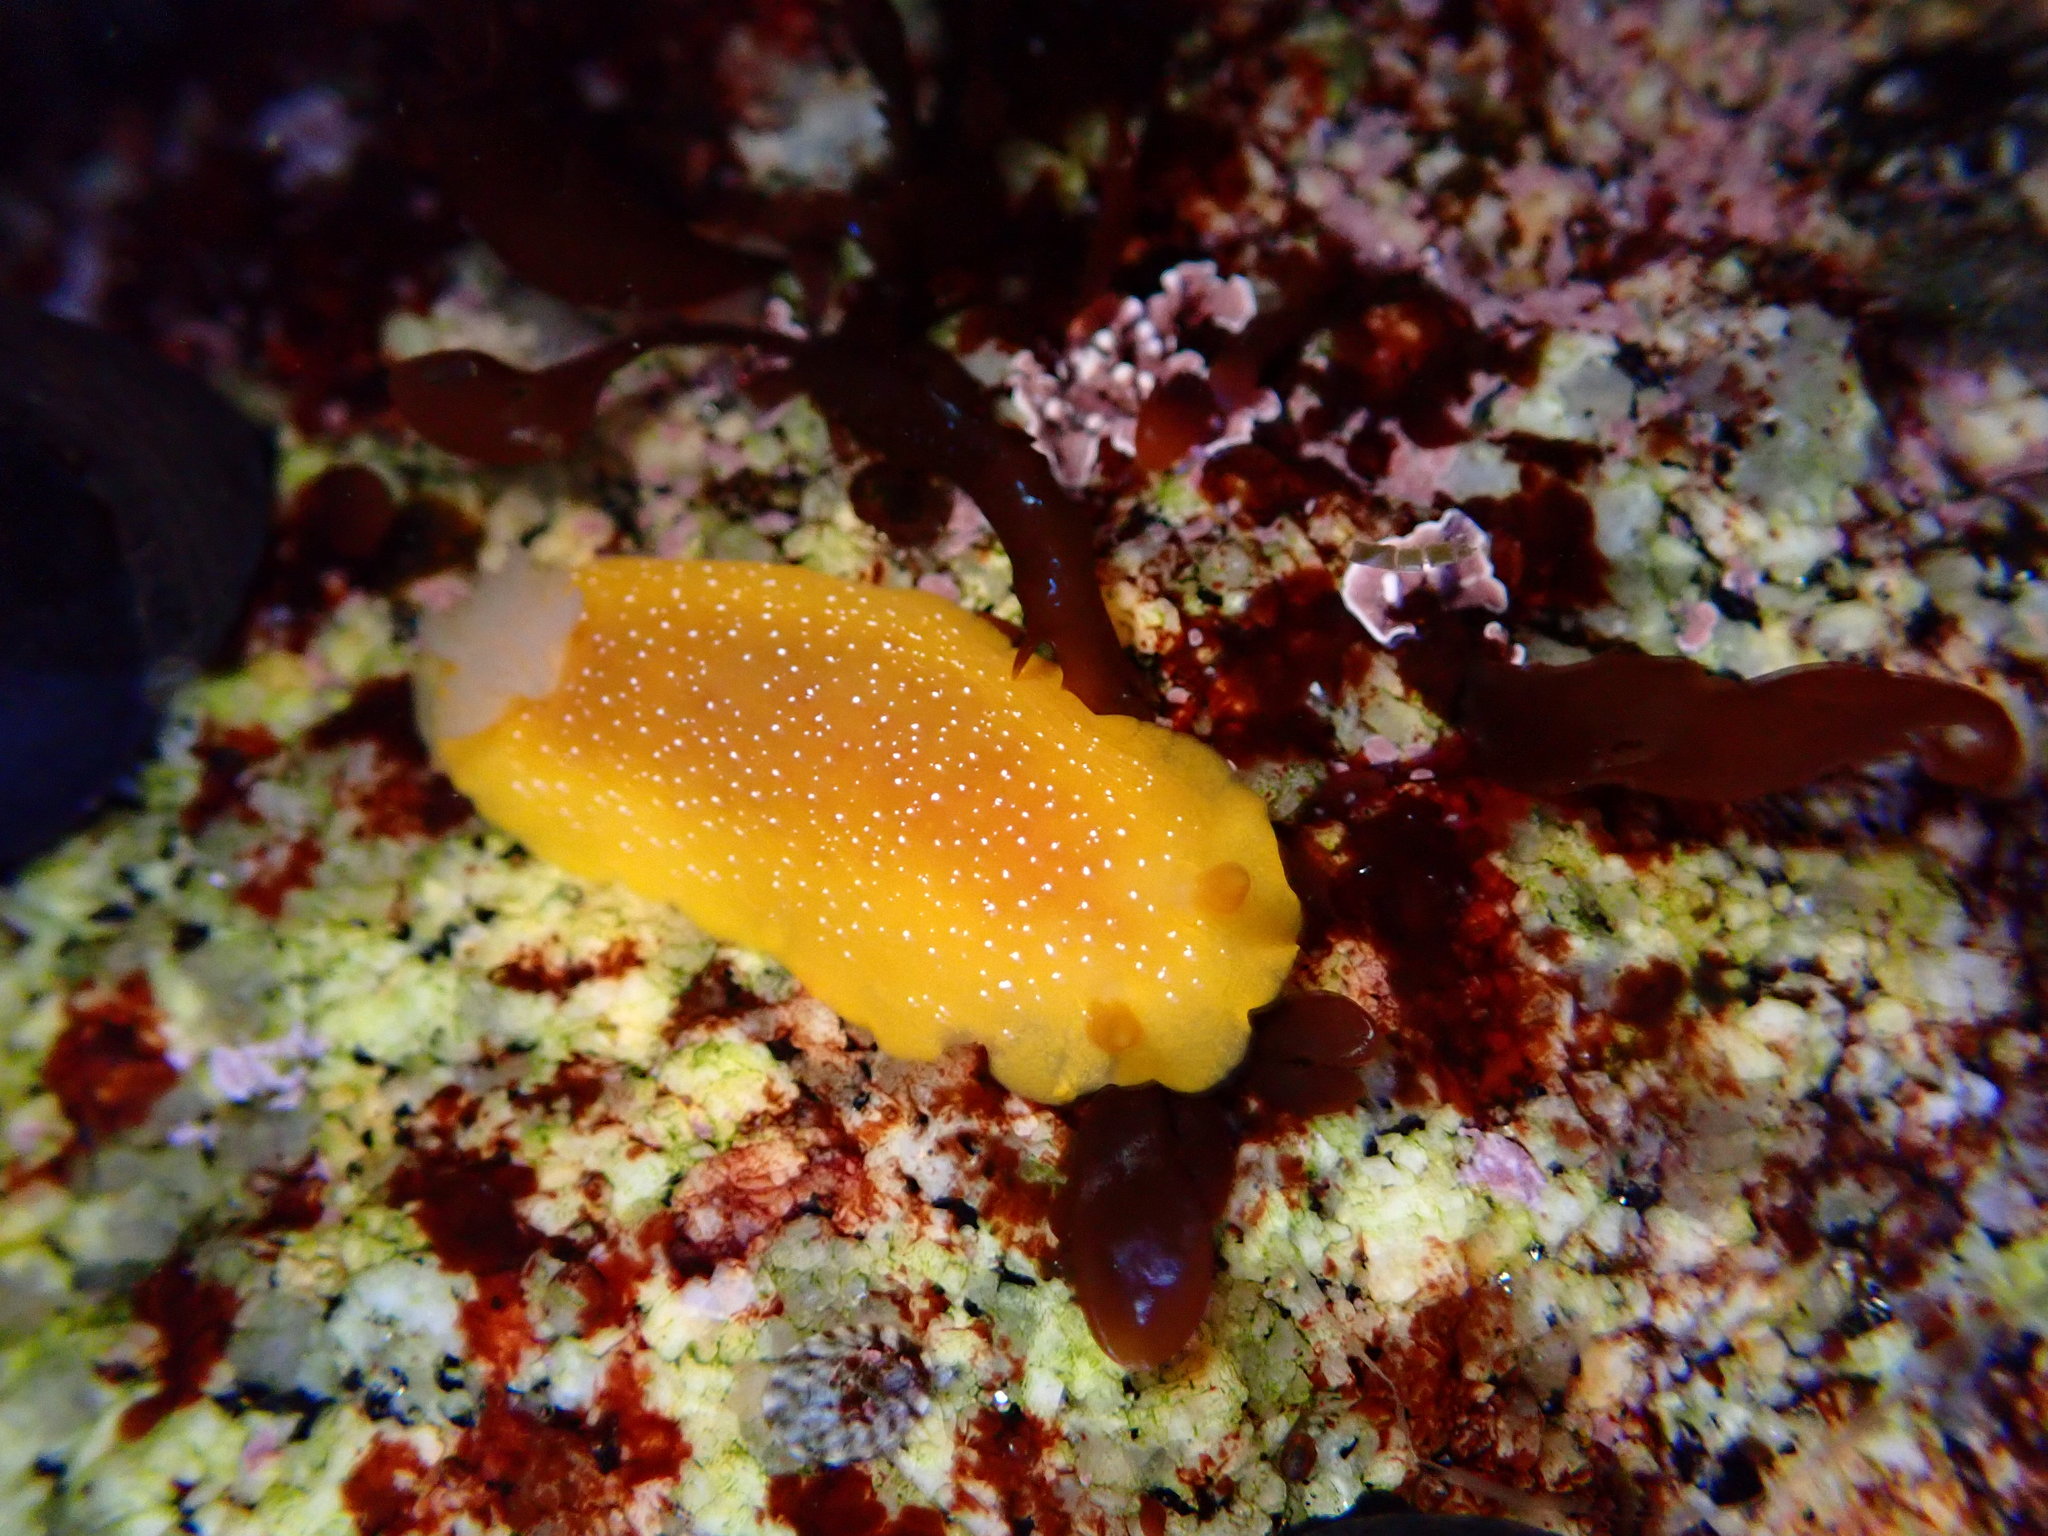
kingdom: Animalia
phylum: Mollusca
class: Gastropoda
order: Nudibranchia
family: Dendrodorididae
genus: Doriopsilla
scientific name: Doriopsilla albopunctata
